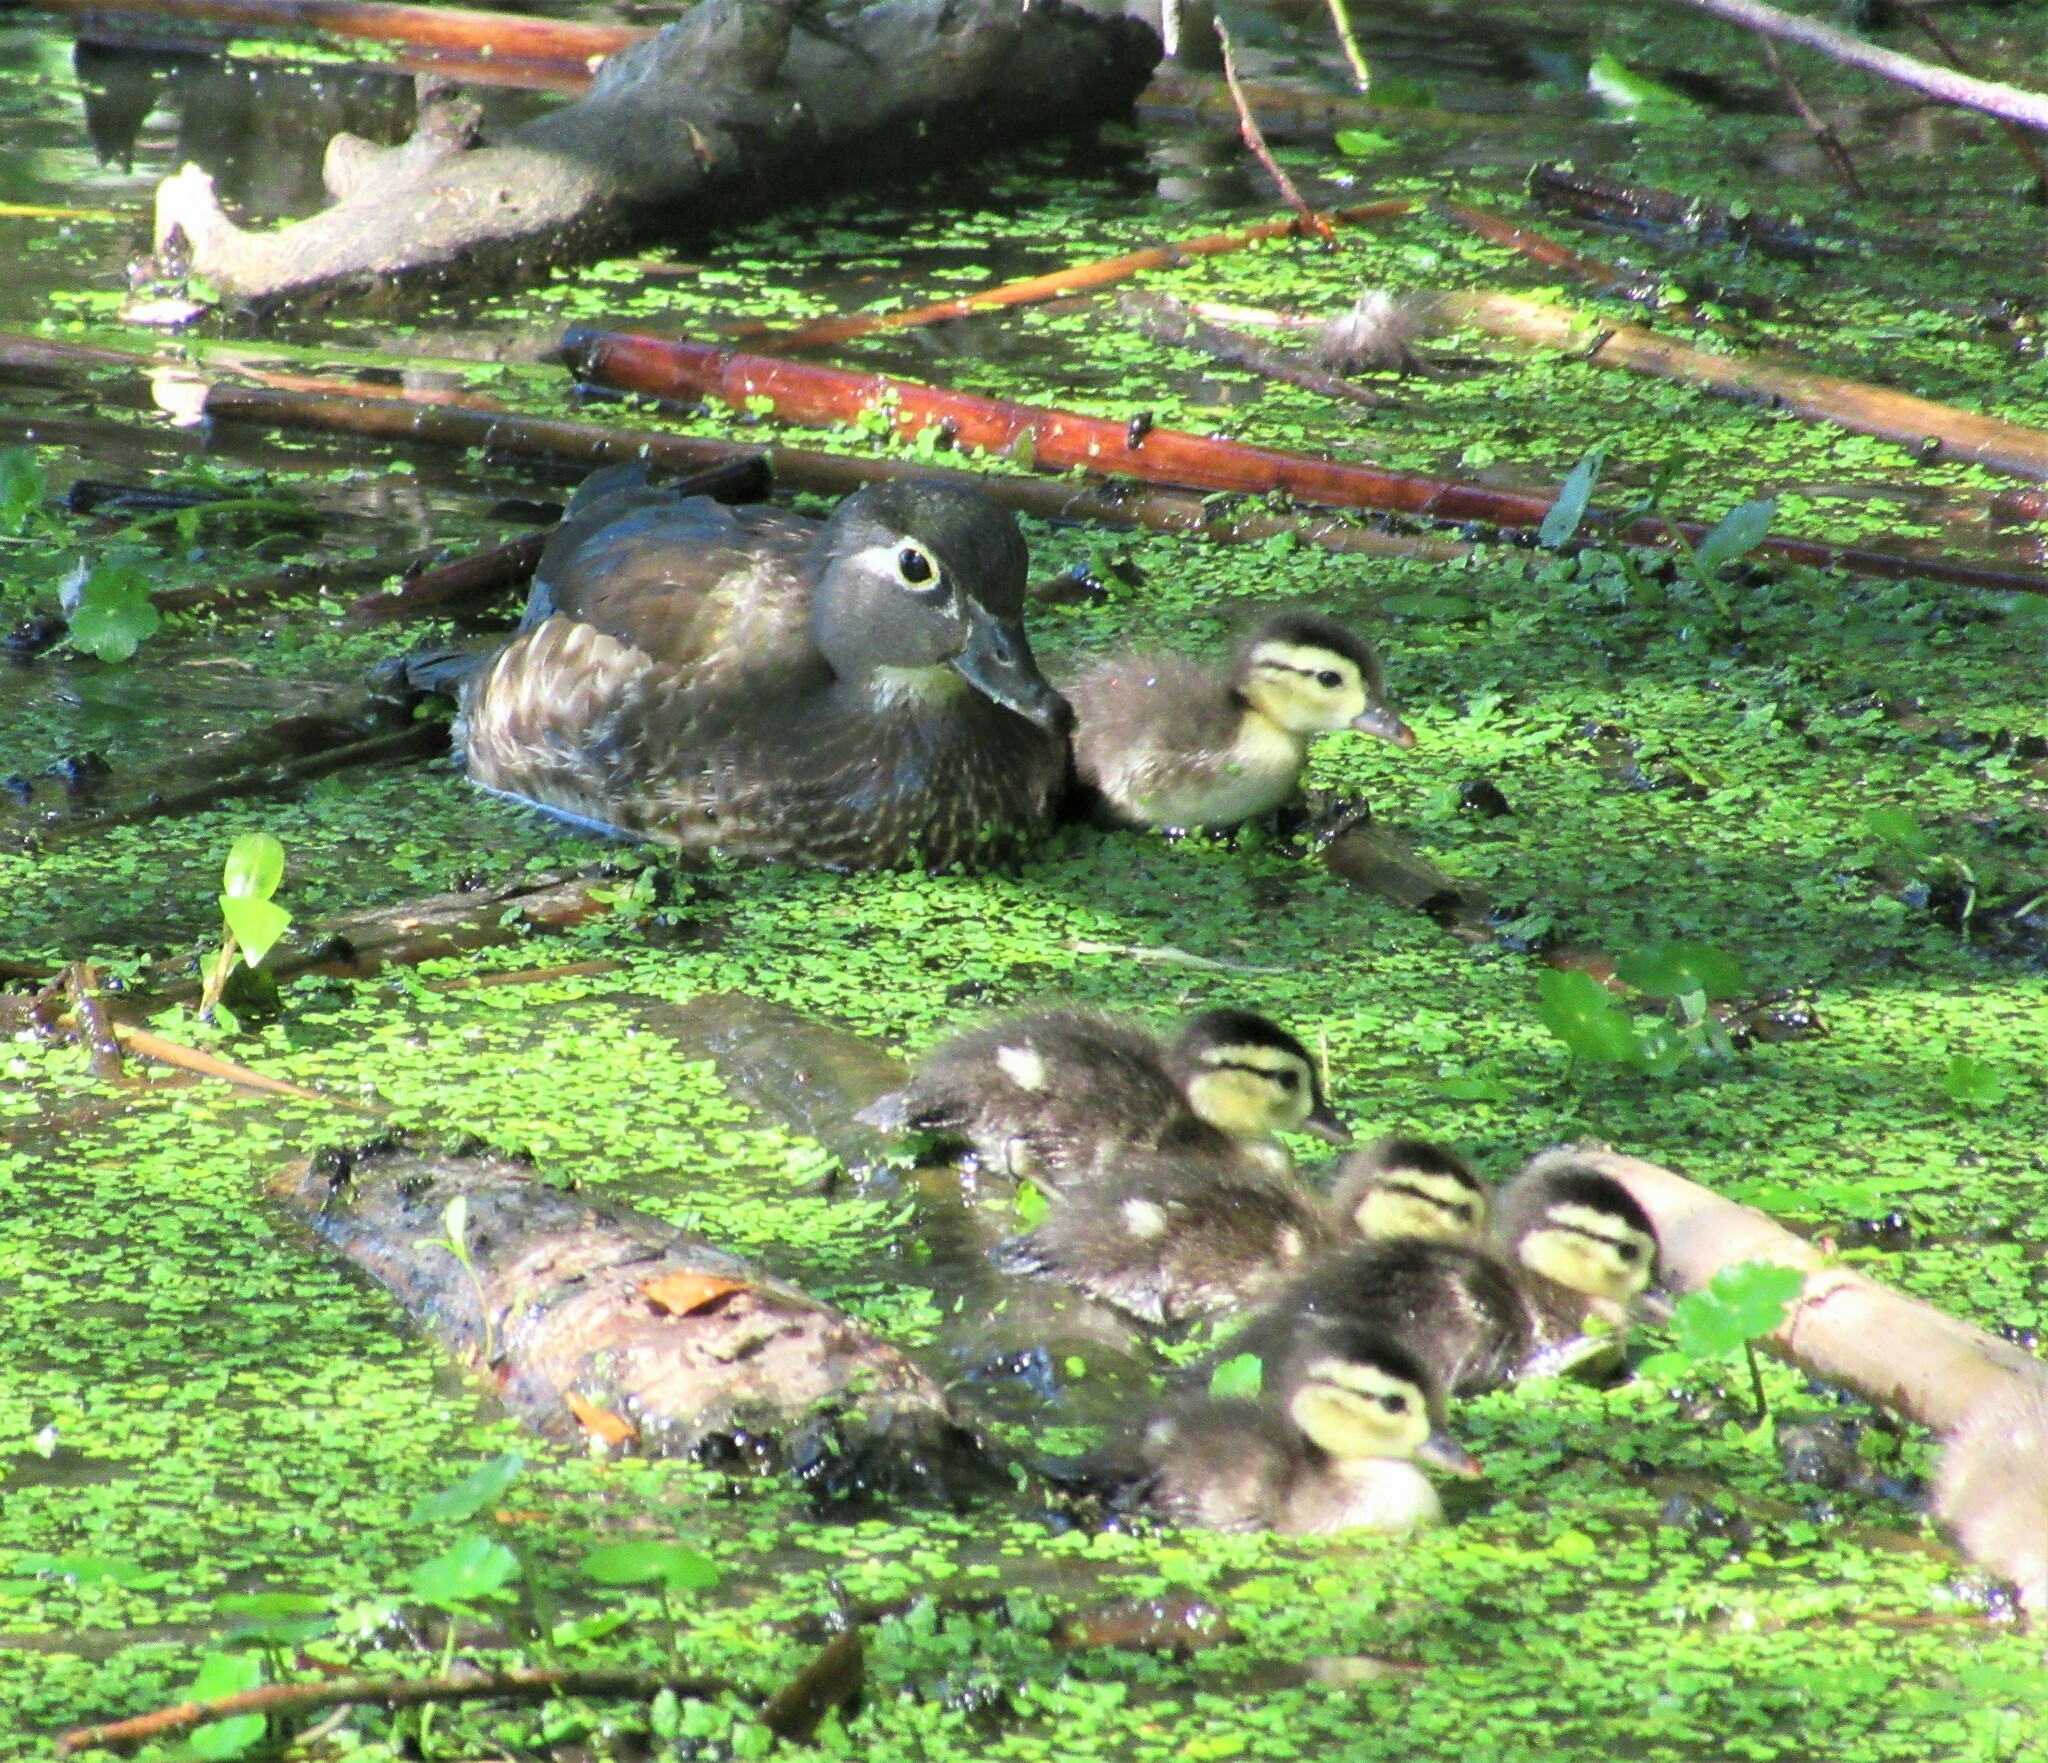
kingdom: Animalia
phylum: Chordata
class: Aves
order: Anseriformes
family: Anatidae
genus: Aix
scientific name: Aix sponsa
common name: Wood duck
